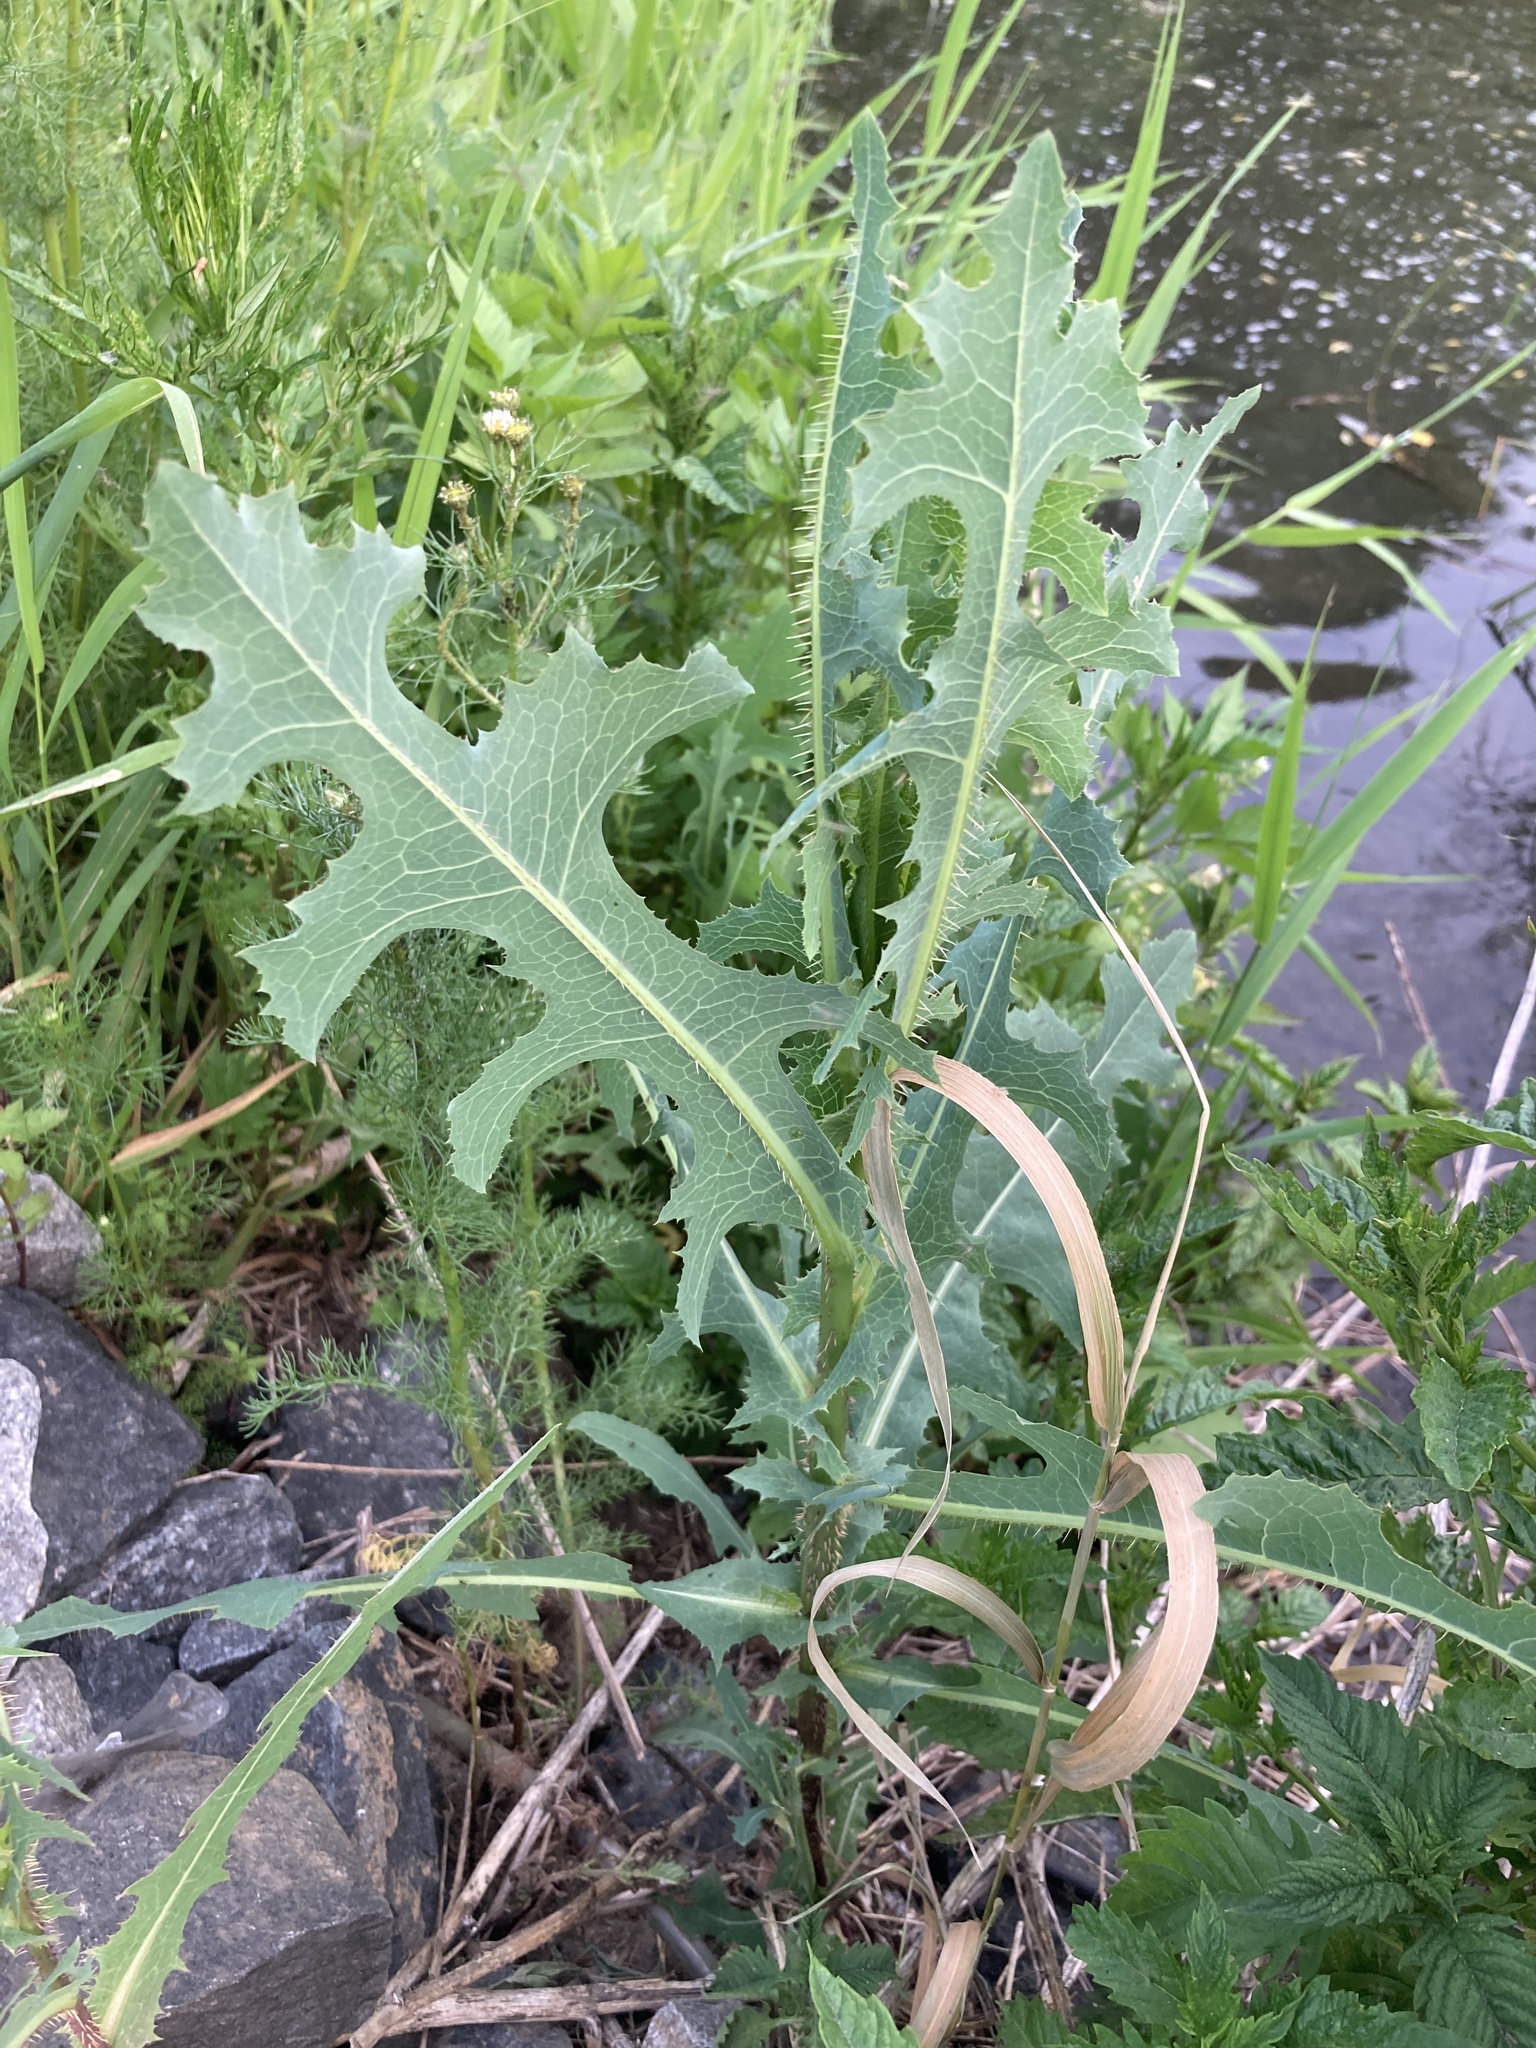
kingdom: Plantae
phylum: Tracheophyta
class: Magnoliopsida
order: Asterales
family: Asteraceae
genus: Lactuca
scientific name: Lactuca serriola
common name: Prickly lettuce
